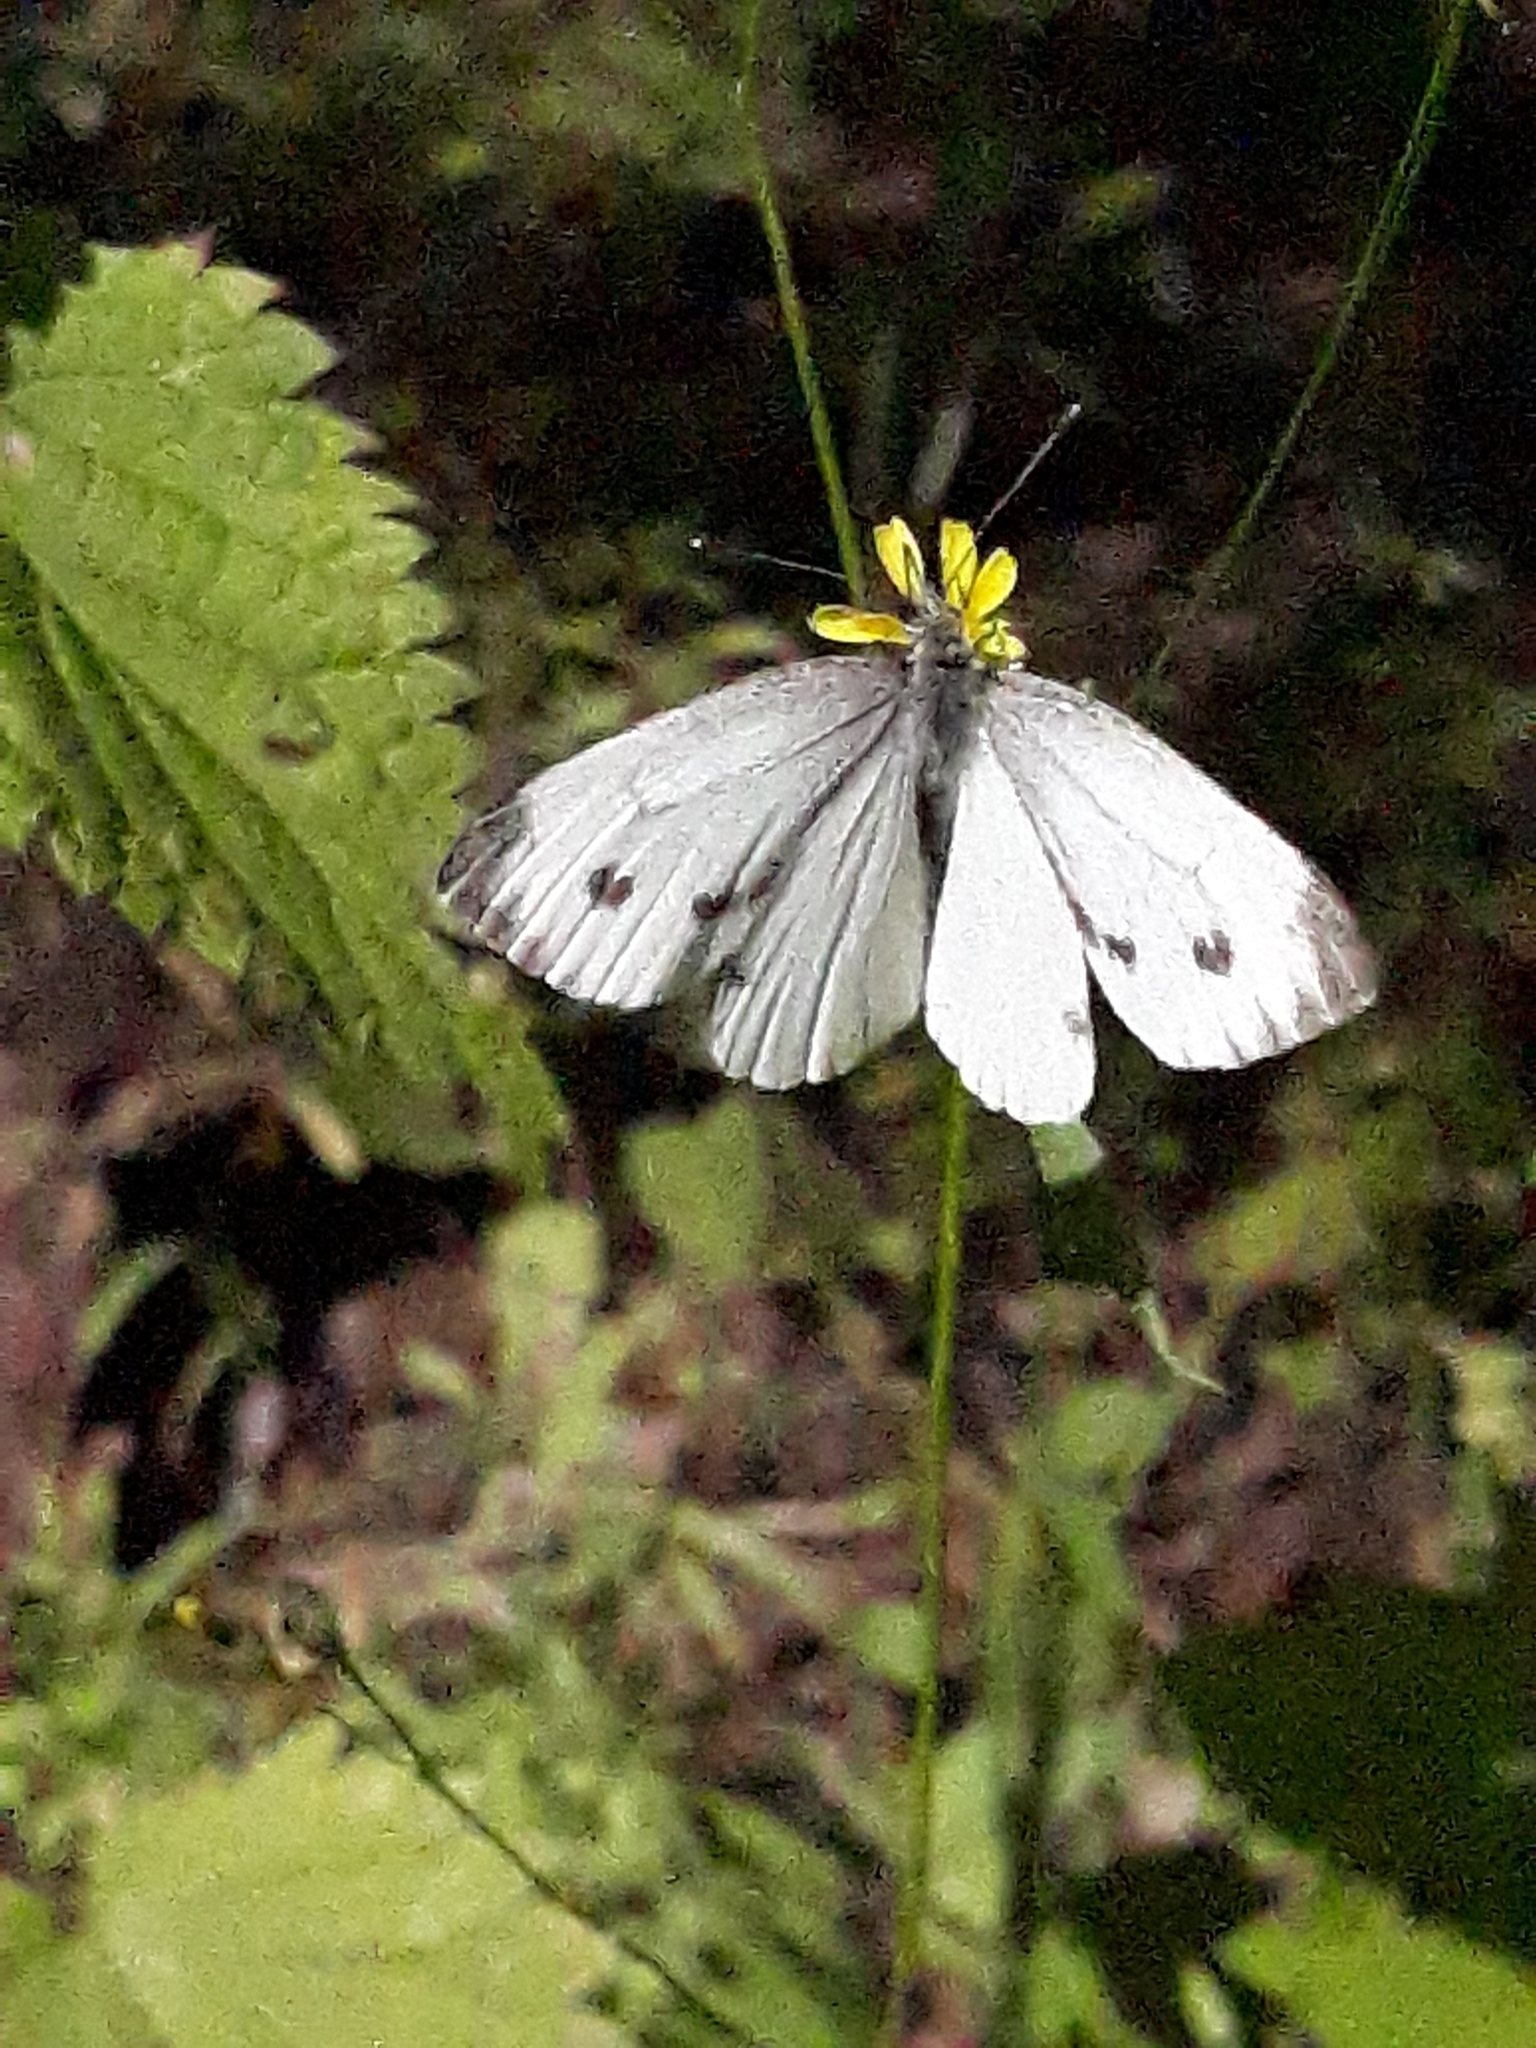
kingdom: Animalia
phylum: Arthropoda
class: Insecta
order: Lepidoptera
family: Pieridae
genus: Pieris
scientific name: Pieris napi
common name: Green-veined white
